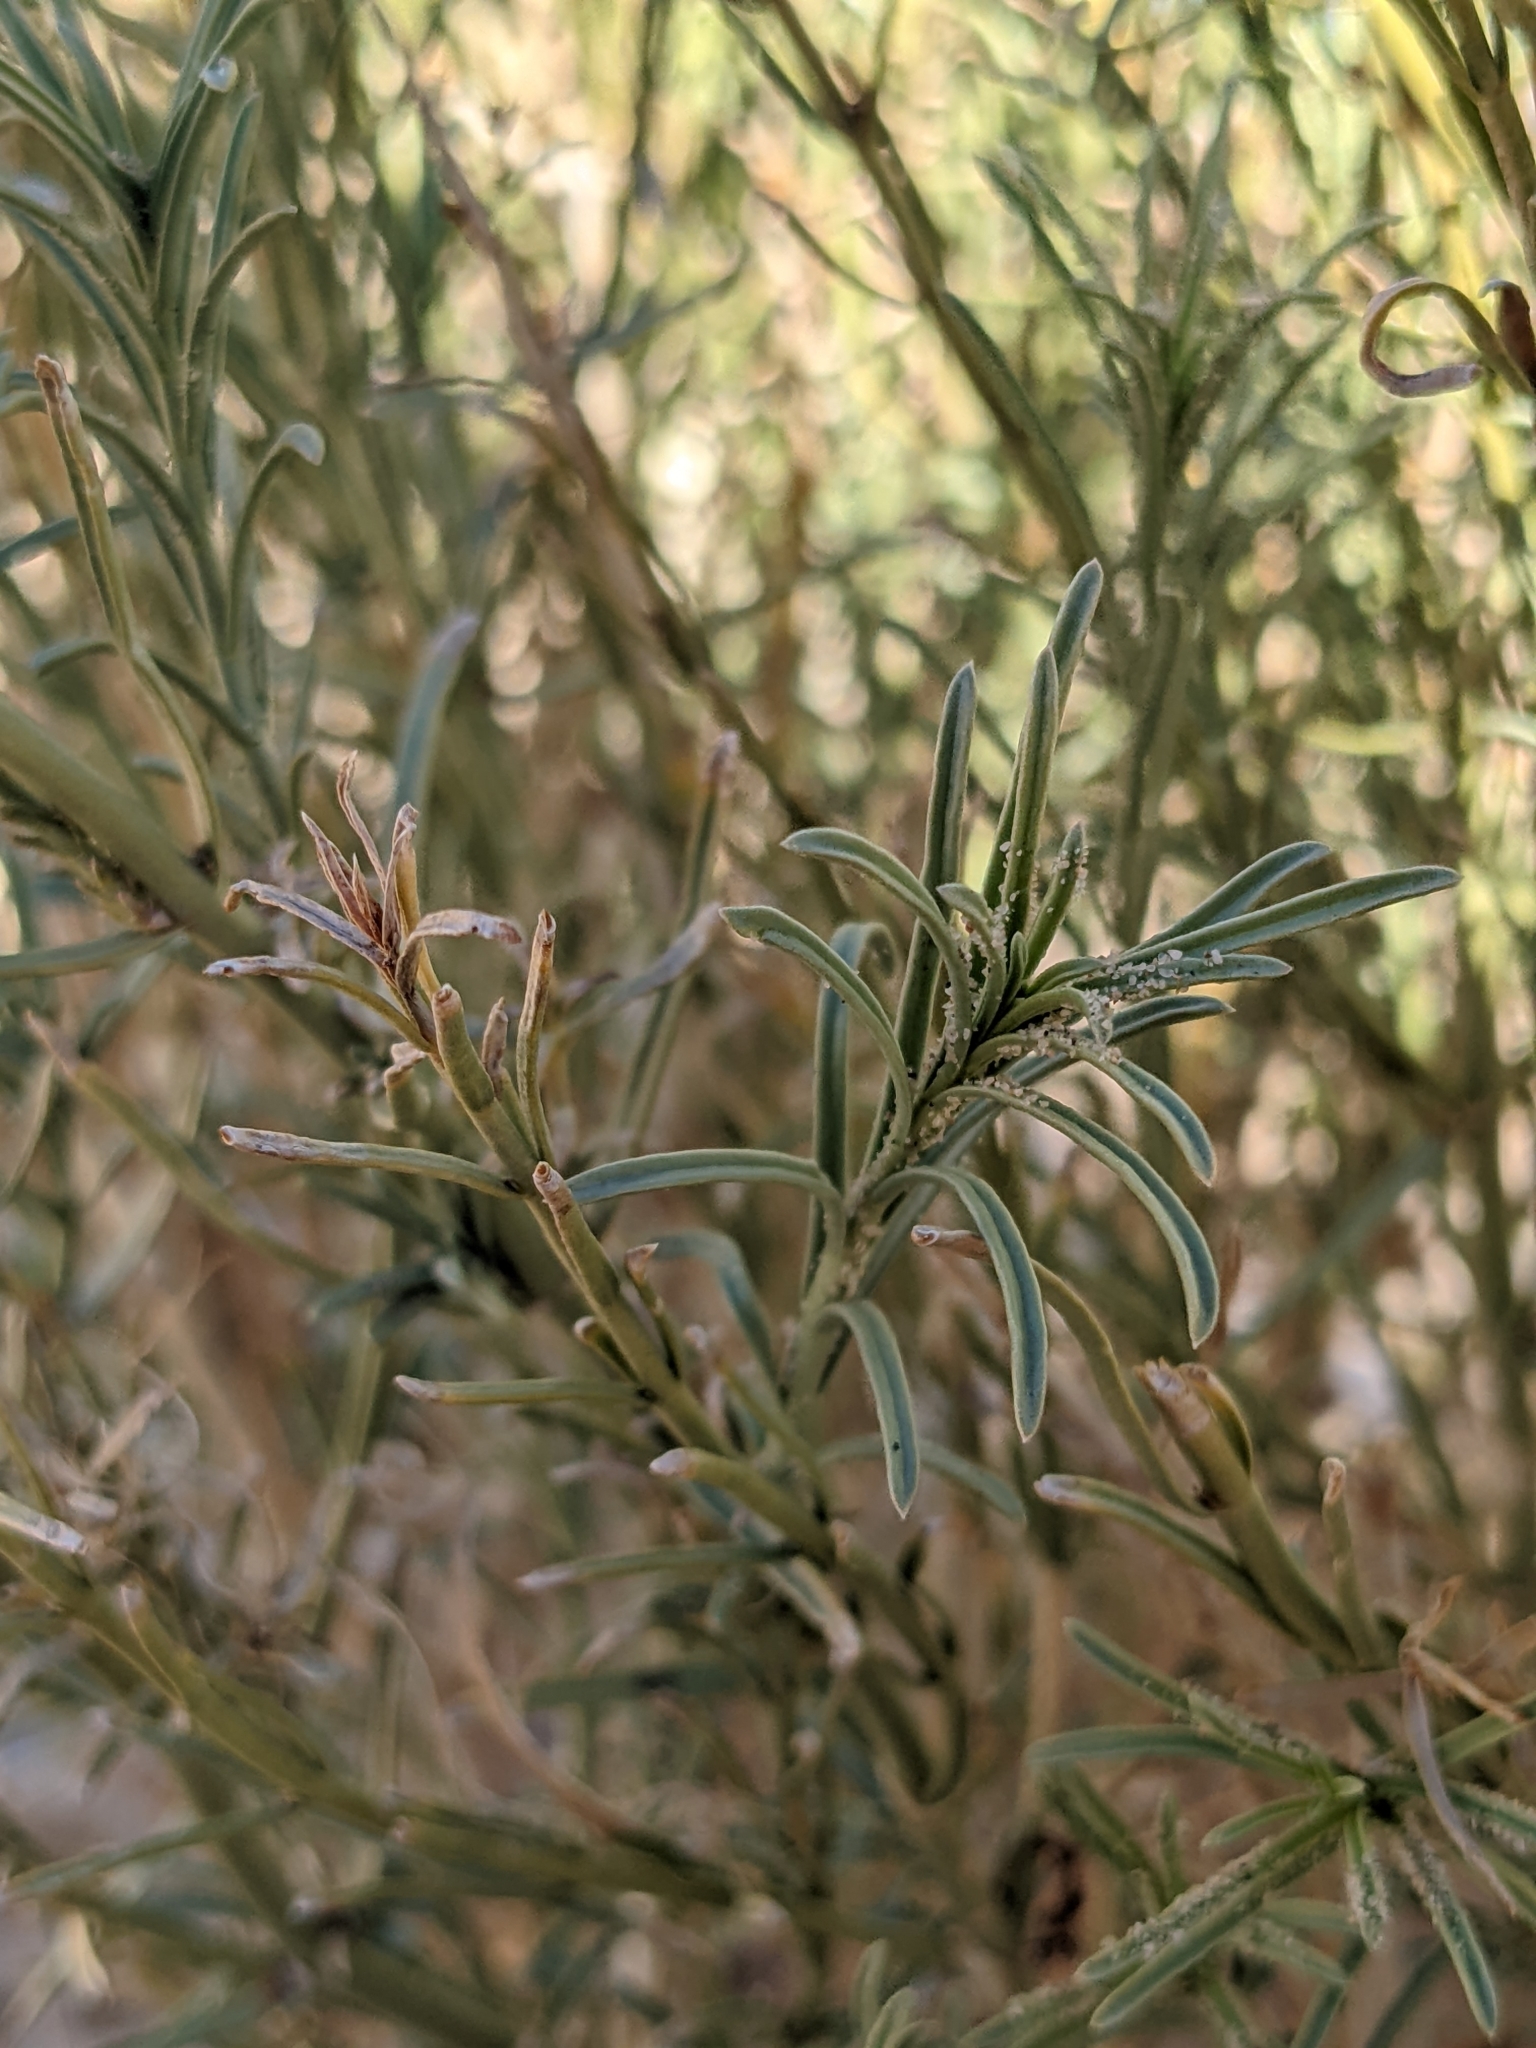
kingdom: Plantae
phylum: Tracheophyta
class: Magnoliopsida
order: Lamiales
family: Plantaginaceae
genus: Penstemon
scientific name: Penstemon thurberi
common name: Thurber's beardtongue
